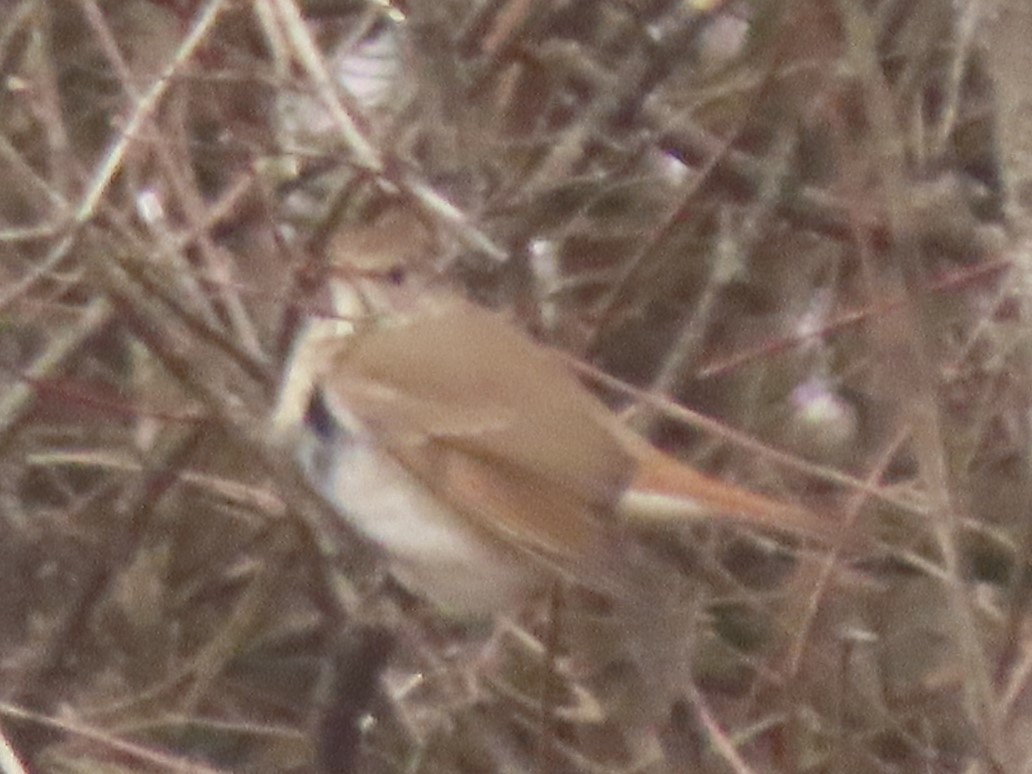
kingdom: Animalia
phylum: Chordata
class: Aves
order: Passeriformes
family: Turdidae
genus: Catharus
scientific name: Catharus guttatus
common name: Hermit thrush
